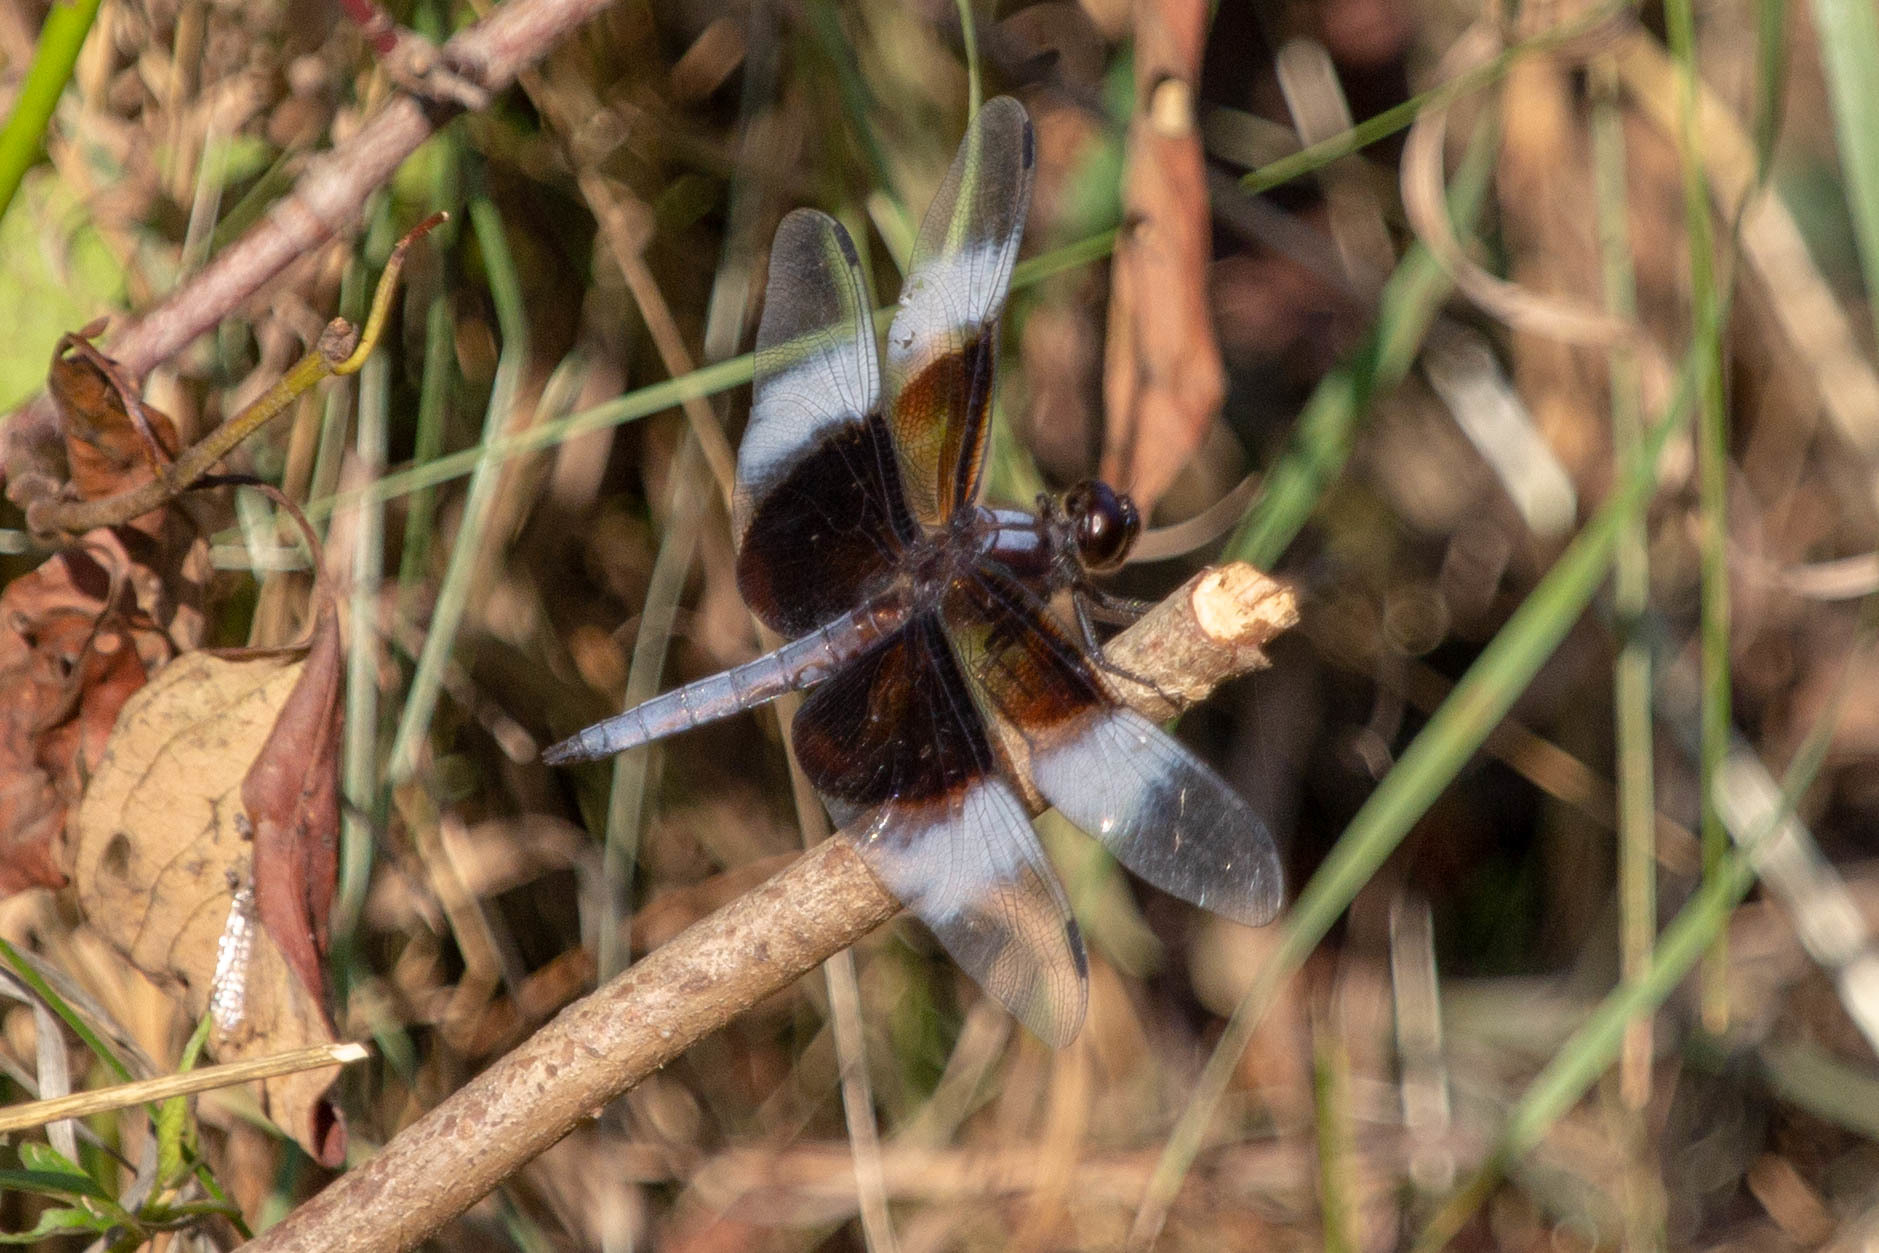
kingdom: Animalia
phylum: Arthropoda
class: Insecta
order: Odonata
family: Libellulidae
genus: Libellula
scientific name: Libellula luctuosa
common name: Widow skimmer
